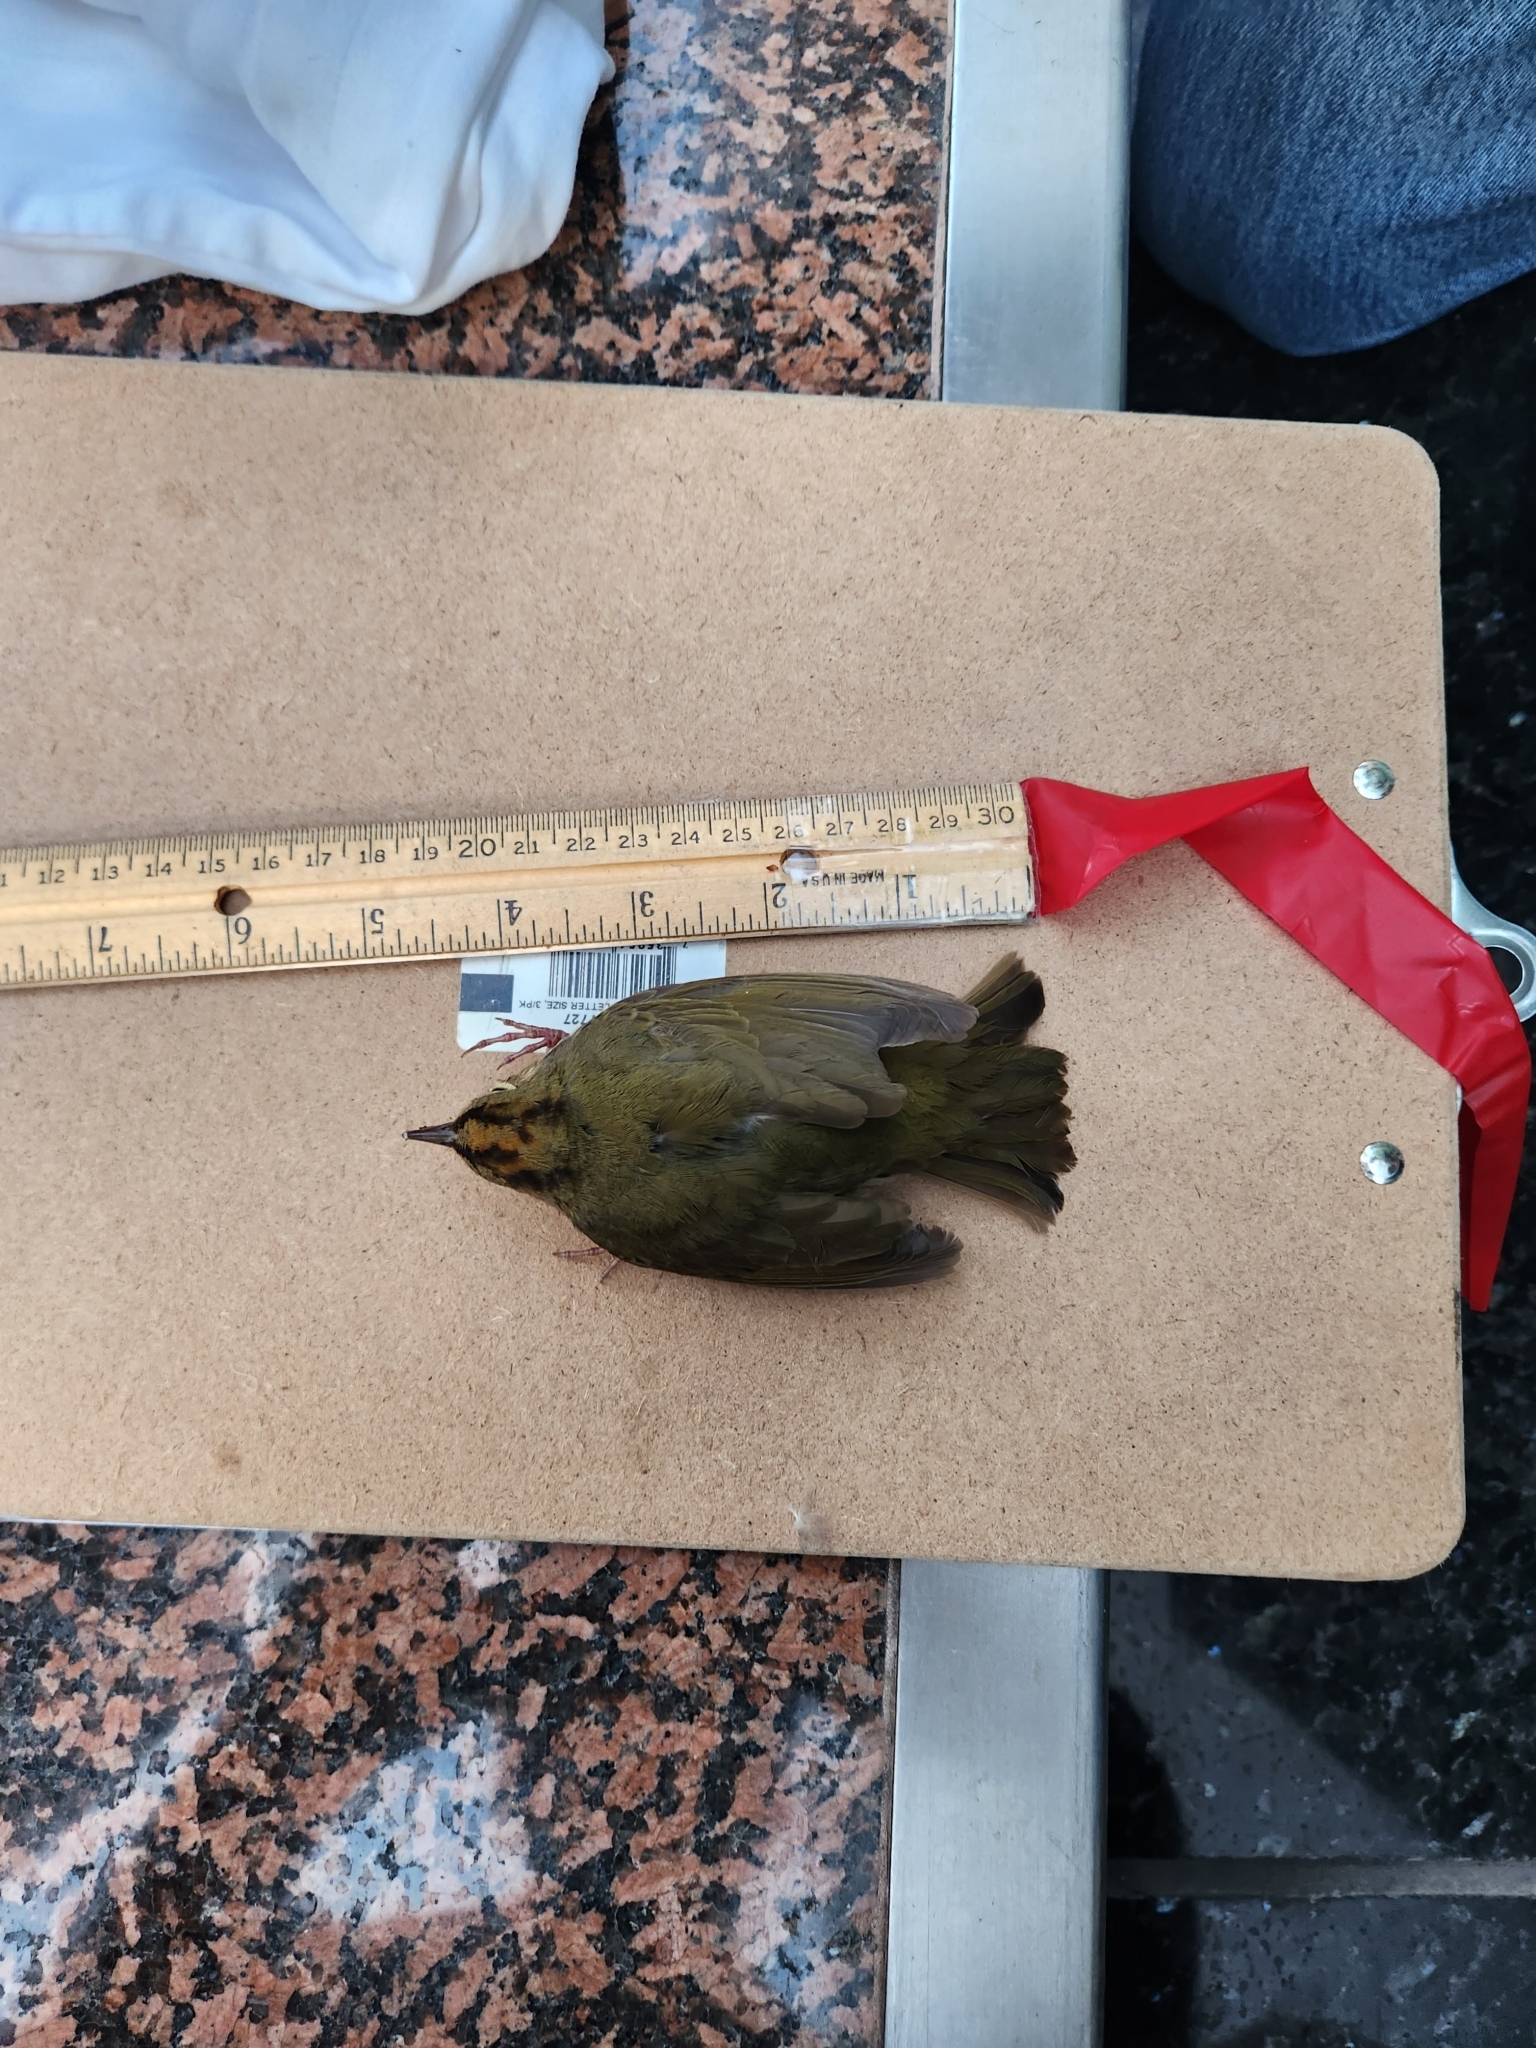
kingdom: Animalia
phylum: Chordata
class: Aves
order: Passeriformes
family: Parulidae
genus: Seiurus
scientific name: Seiurus aurocapilla
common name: Ovenbird
